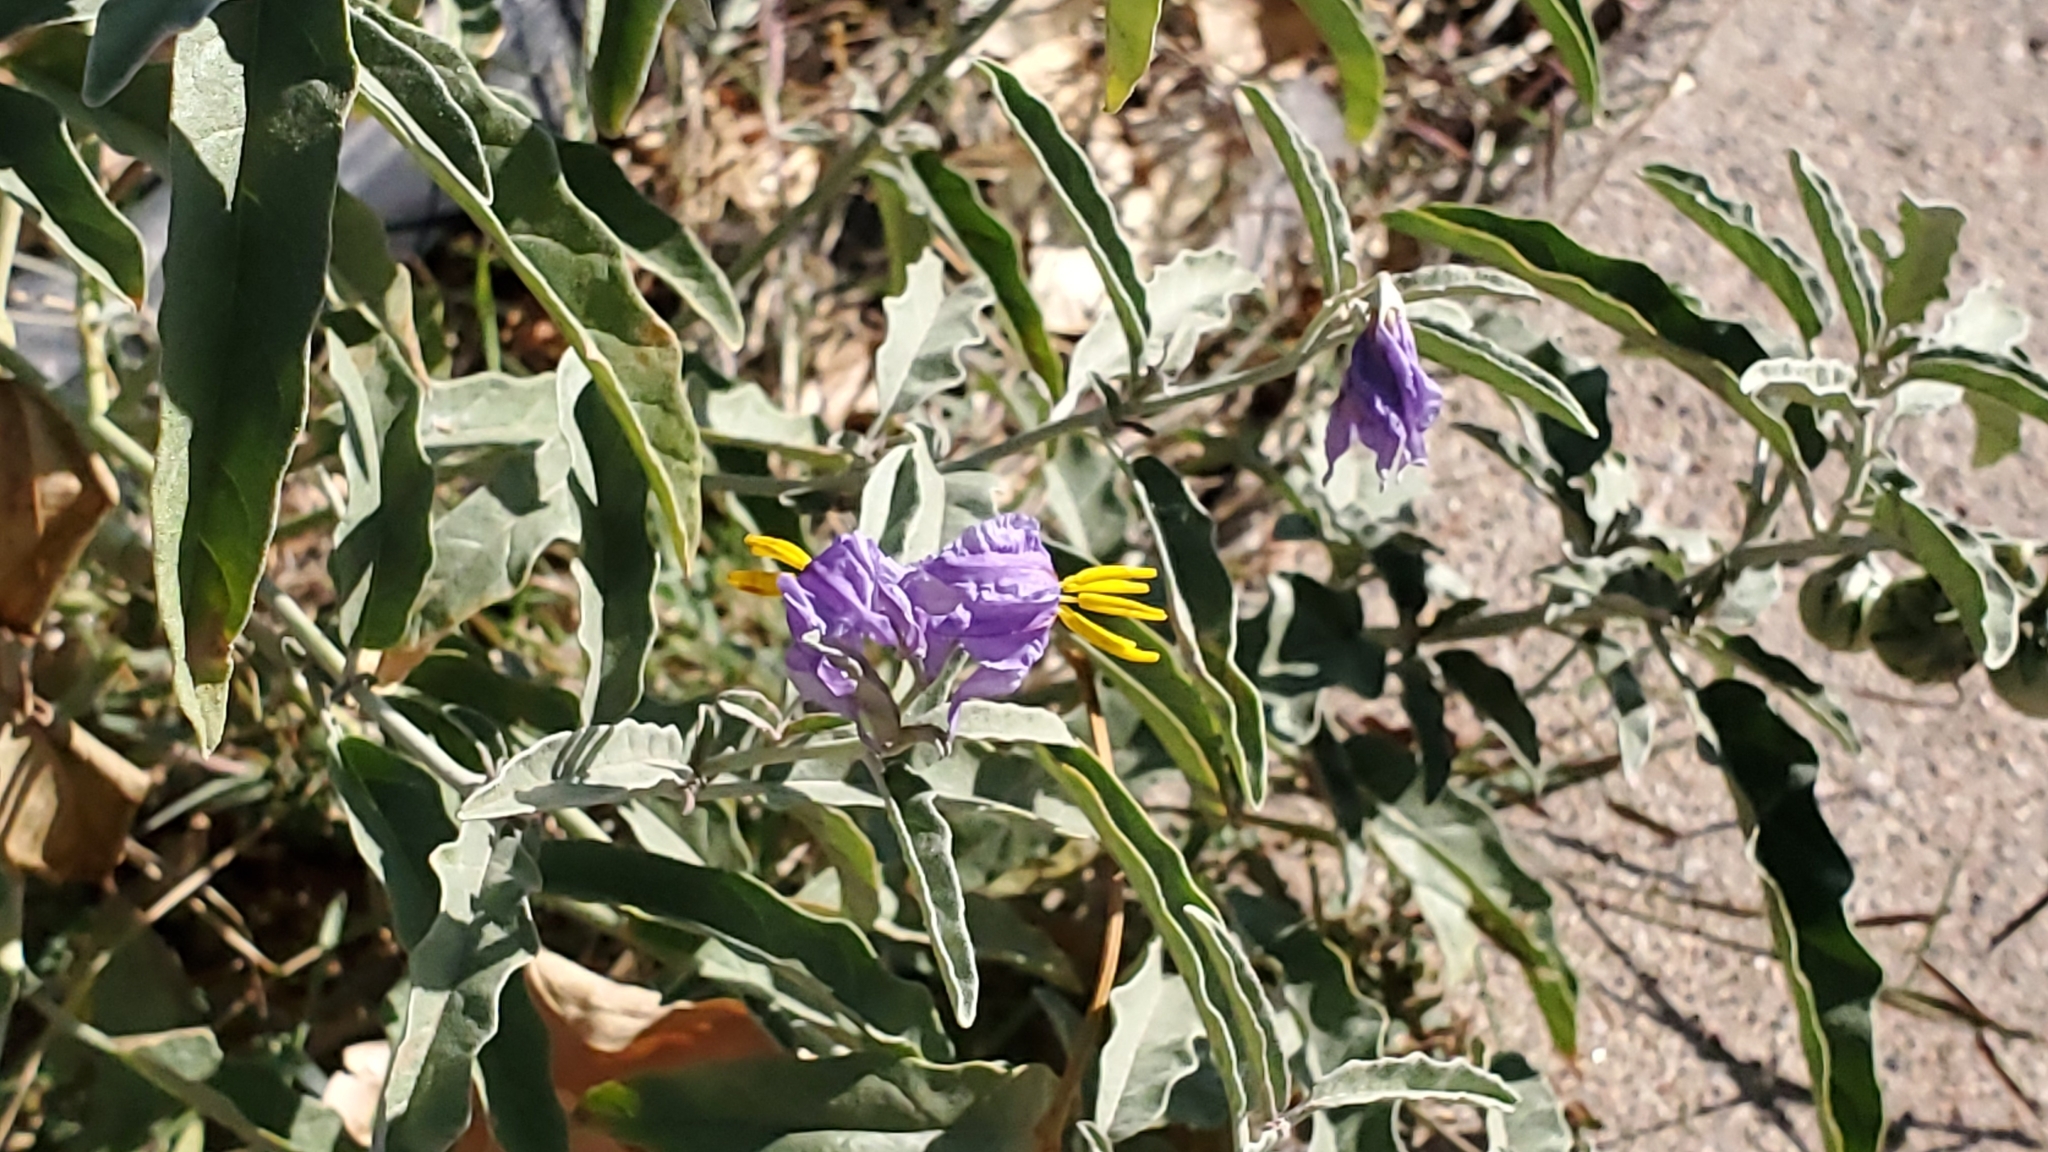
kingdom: Plantae
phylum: Tracheophyta
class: Magnoliopsida
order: Solanales
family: Solanaceae
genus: Solanum
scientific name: Solanum elaeagnifolium
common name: Silverleaf nightshade
